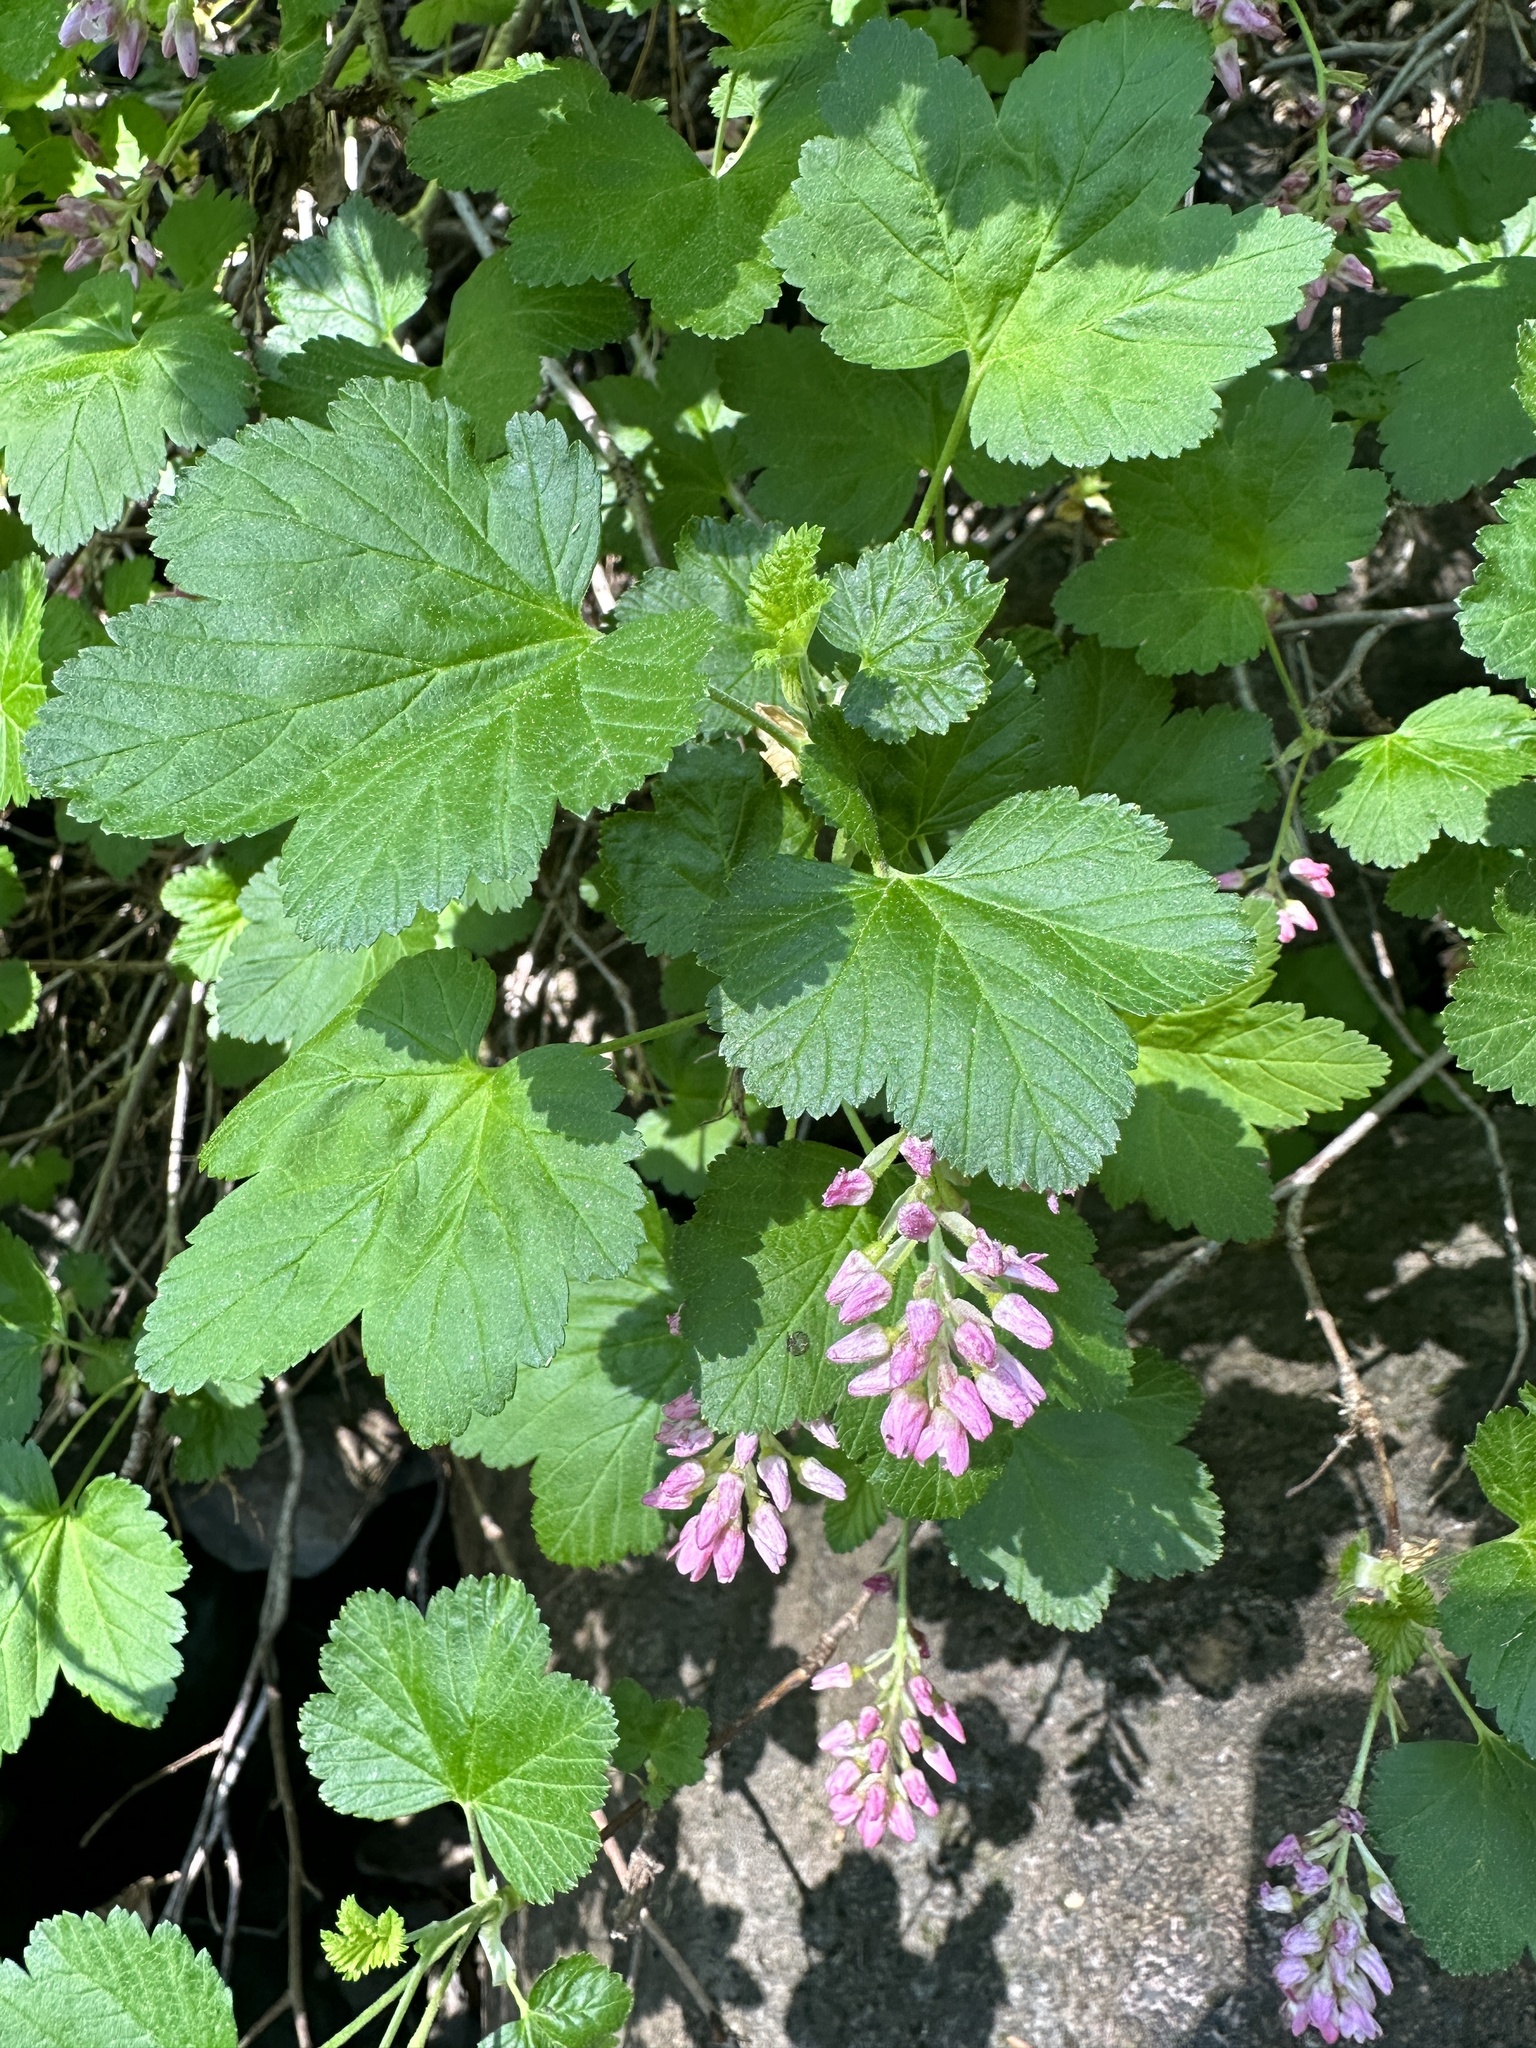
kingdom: Plantae
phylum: Tracheophyta
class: Magnoliopsida
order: Saxifragales
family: Grossulariaceae
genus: Ribes
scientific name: Ribes nevadense
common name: Mountain pink currant
